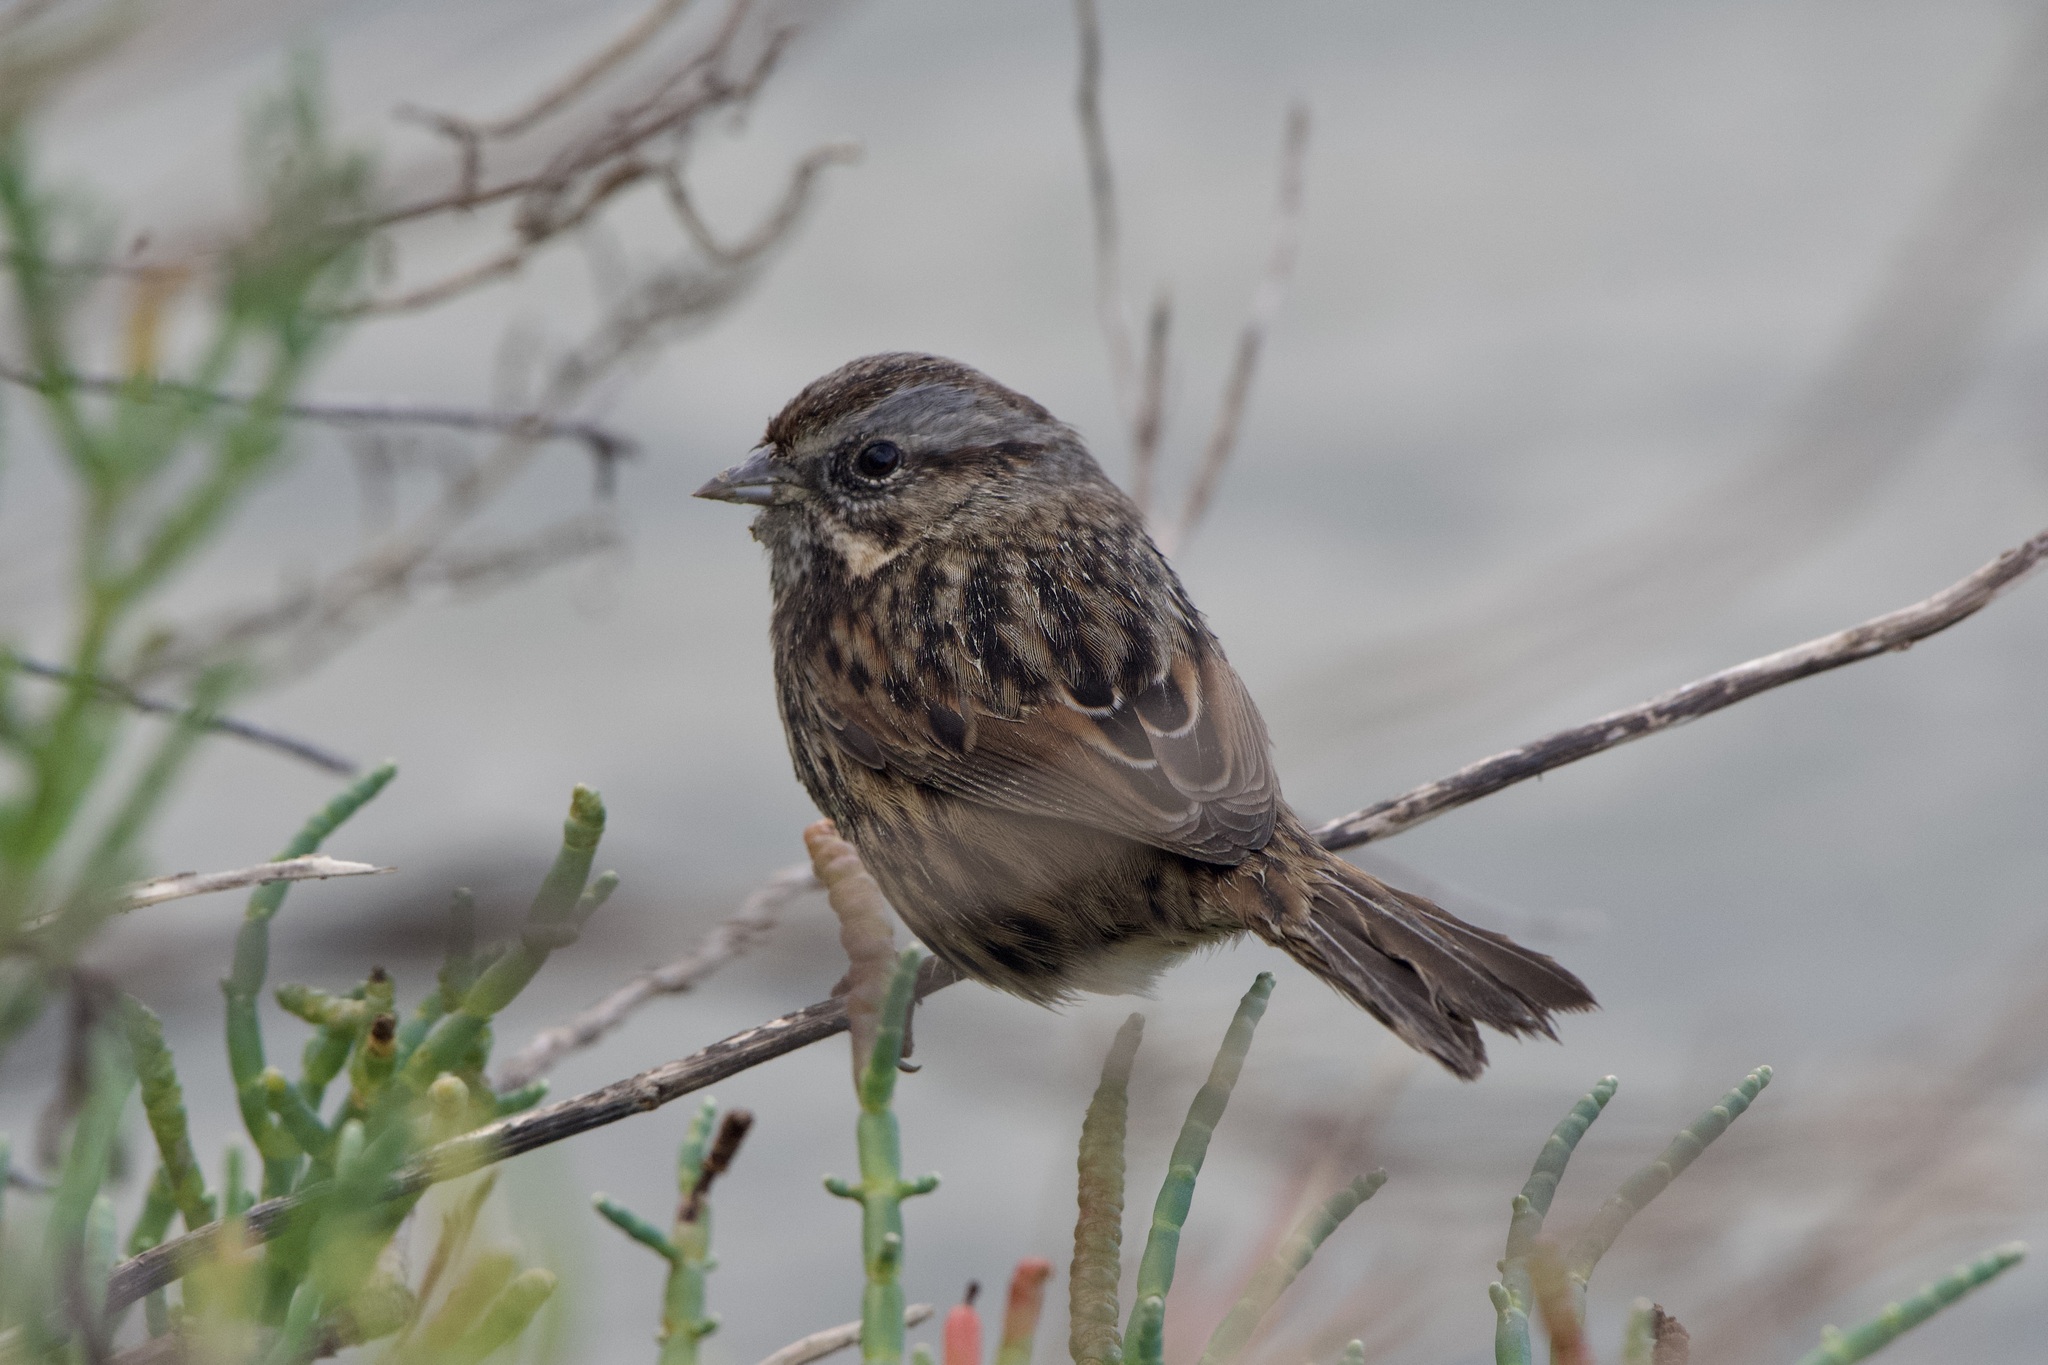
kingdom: Animalia
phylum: Chordata
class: Aves
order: Passeriformes
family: Passerellidae
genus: Melospiza
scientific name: Melospiza melodia
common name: Song sparrow
